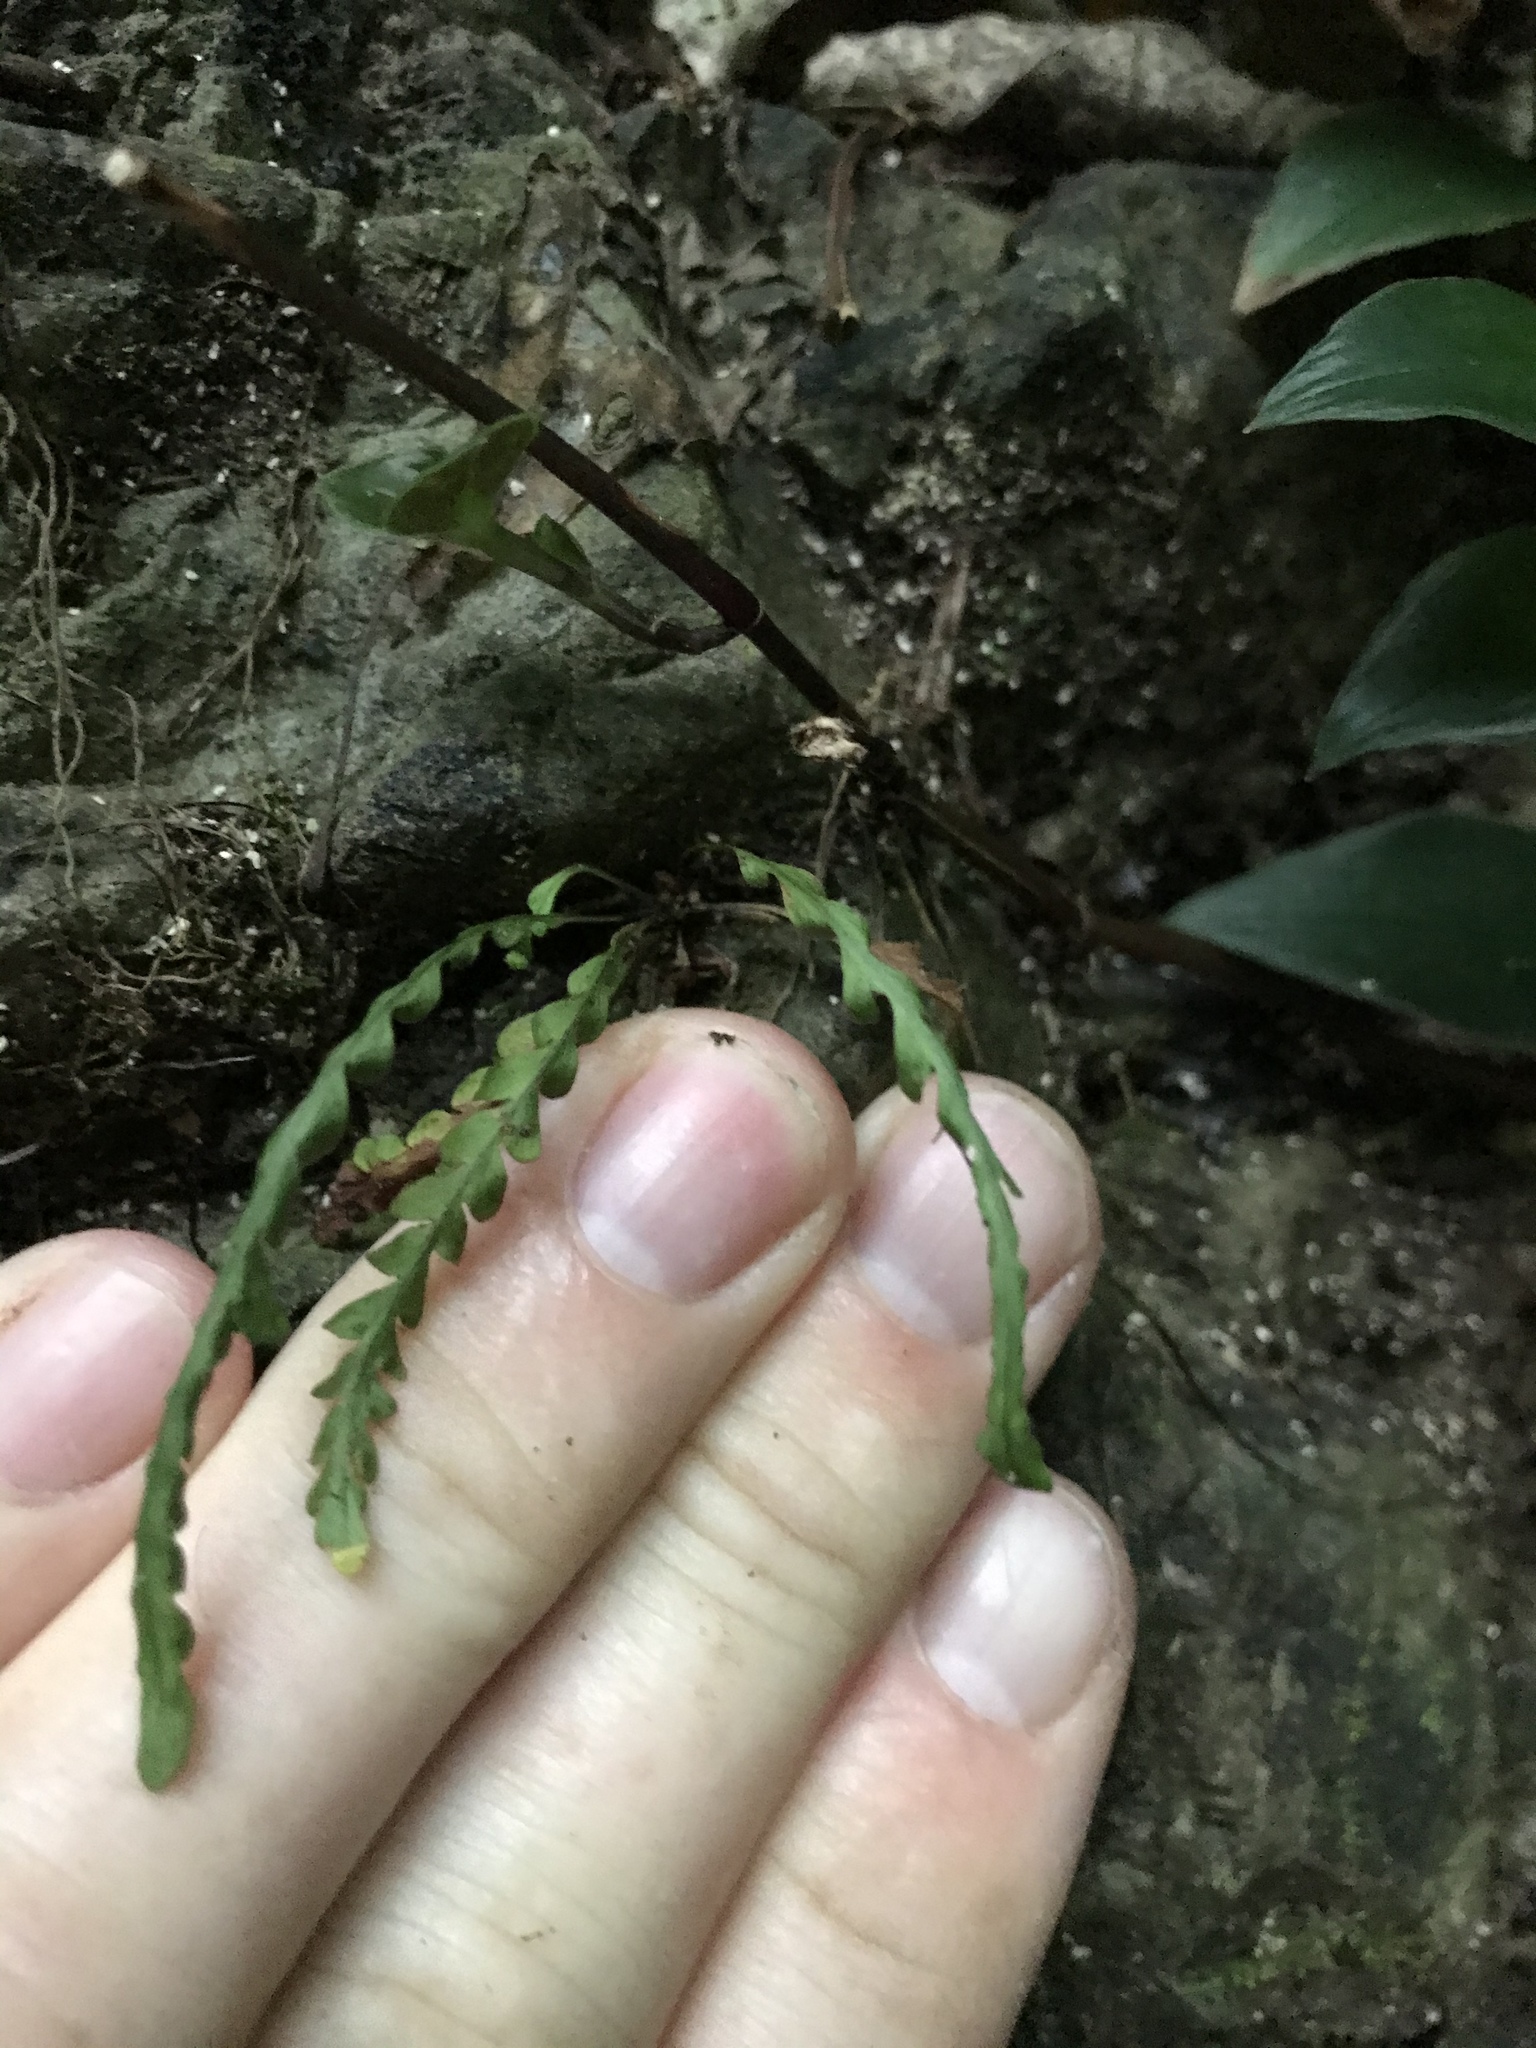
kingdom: Plantae
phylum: Tracheophyta
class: Polypodiopsida
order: Polypodiales
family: Polypodiaceae
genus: Notogrammitis
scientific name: Notogrammitis heterophylla
